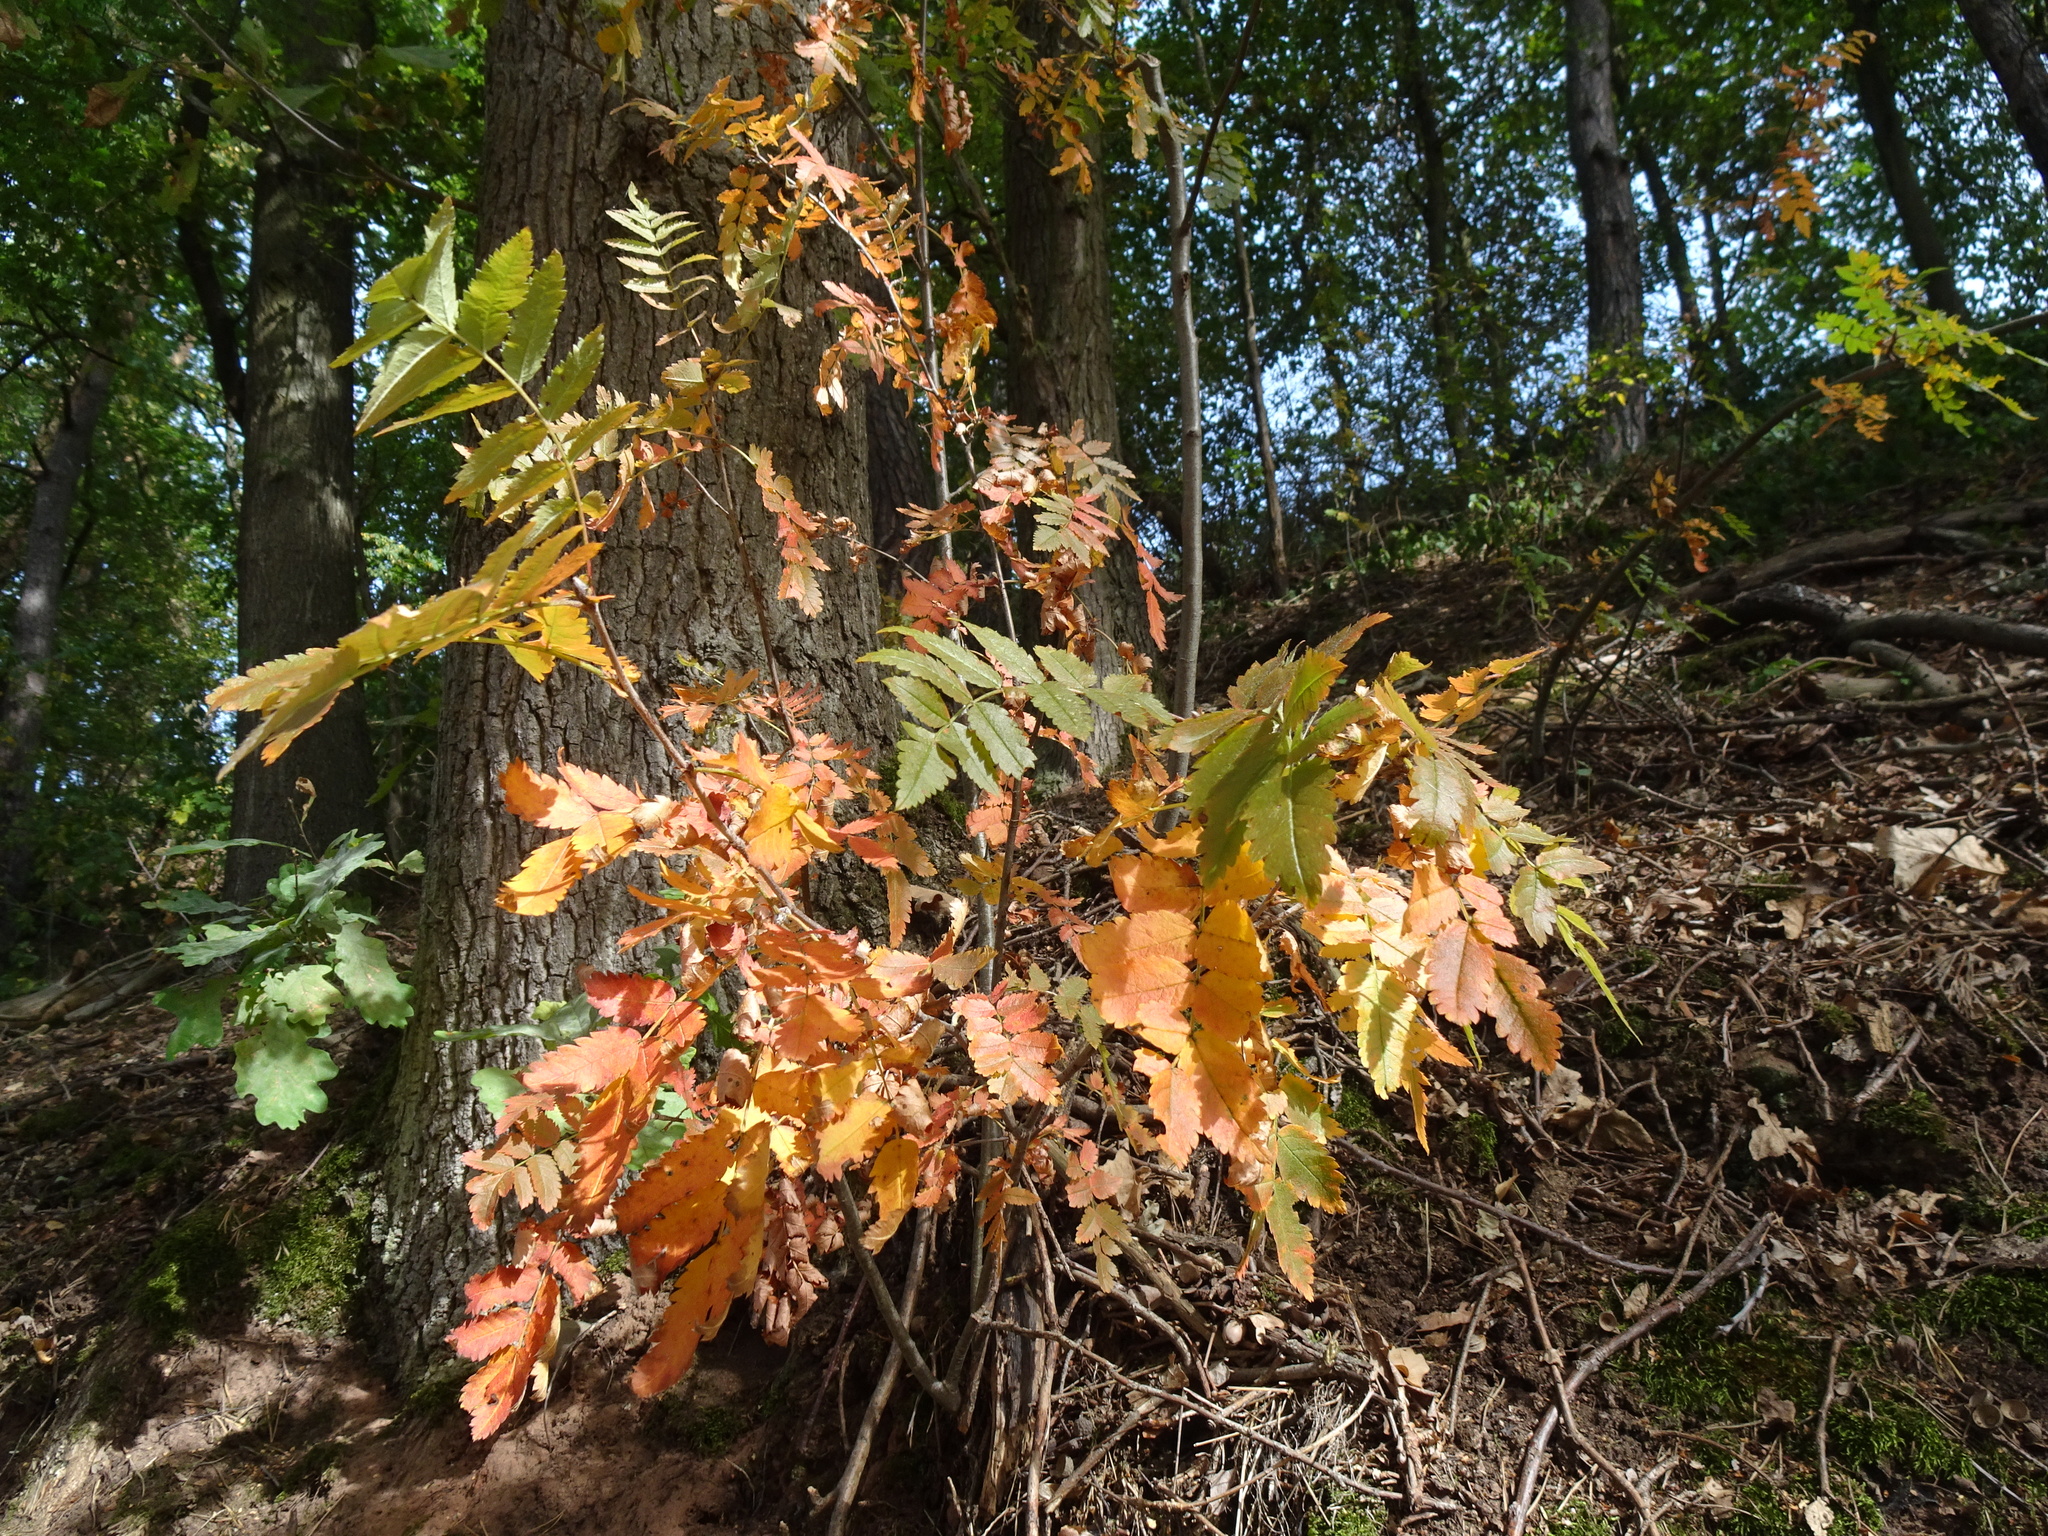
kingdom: Plantae
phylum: Tracheophyta
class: Magnoliopsida
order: Rosales
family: Rosaceae
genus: Sorbus
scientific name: Sorbus aucuparia
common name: Rowan
